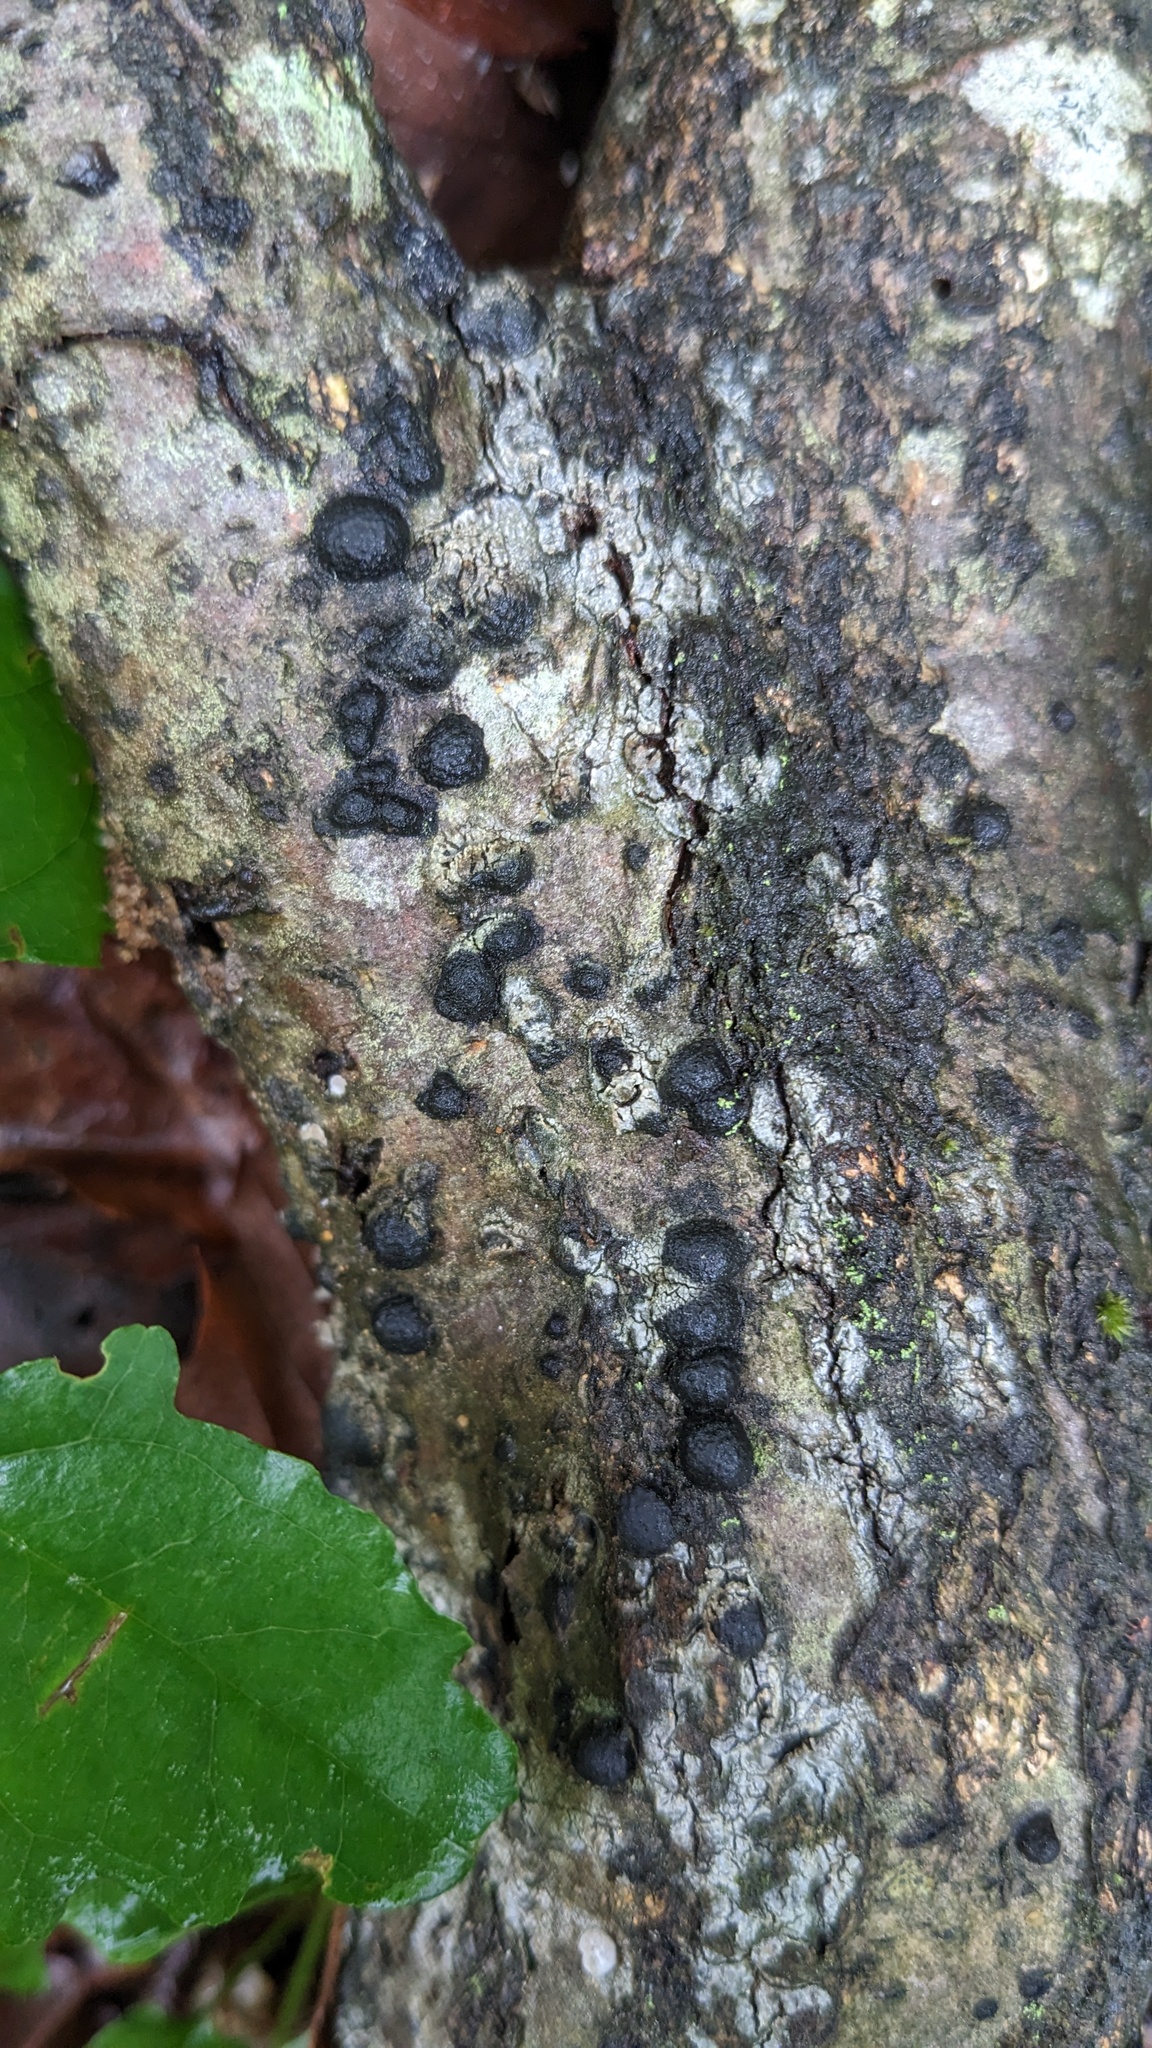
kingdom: Fungi
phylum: Ascomycota
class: Sordariomycetes
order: Xylariales
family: Hypoxylaceae
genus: Annulohypoxylon
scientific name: Annulohypoxylon truncatum
